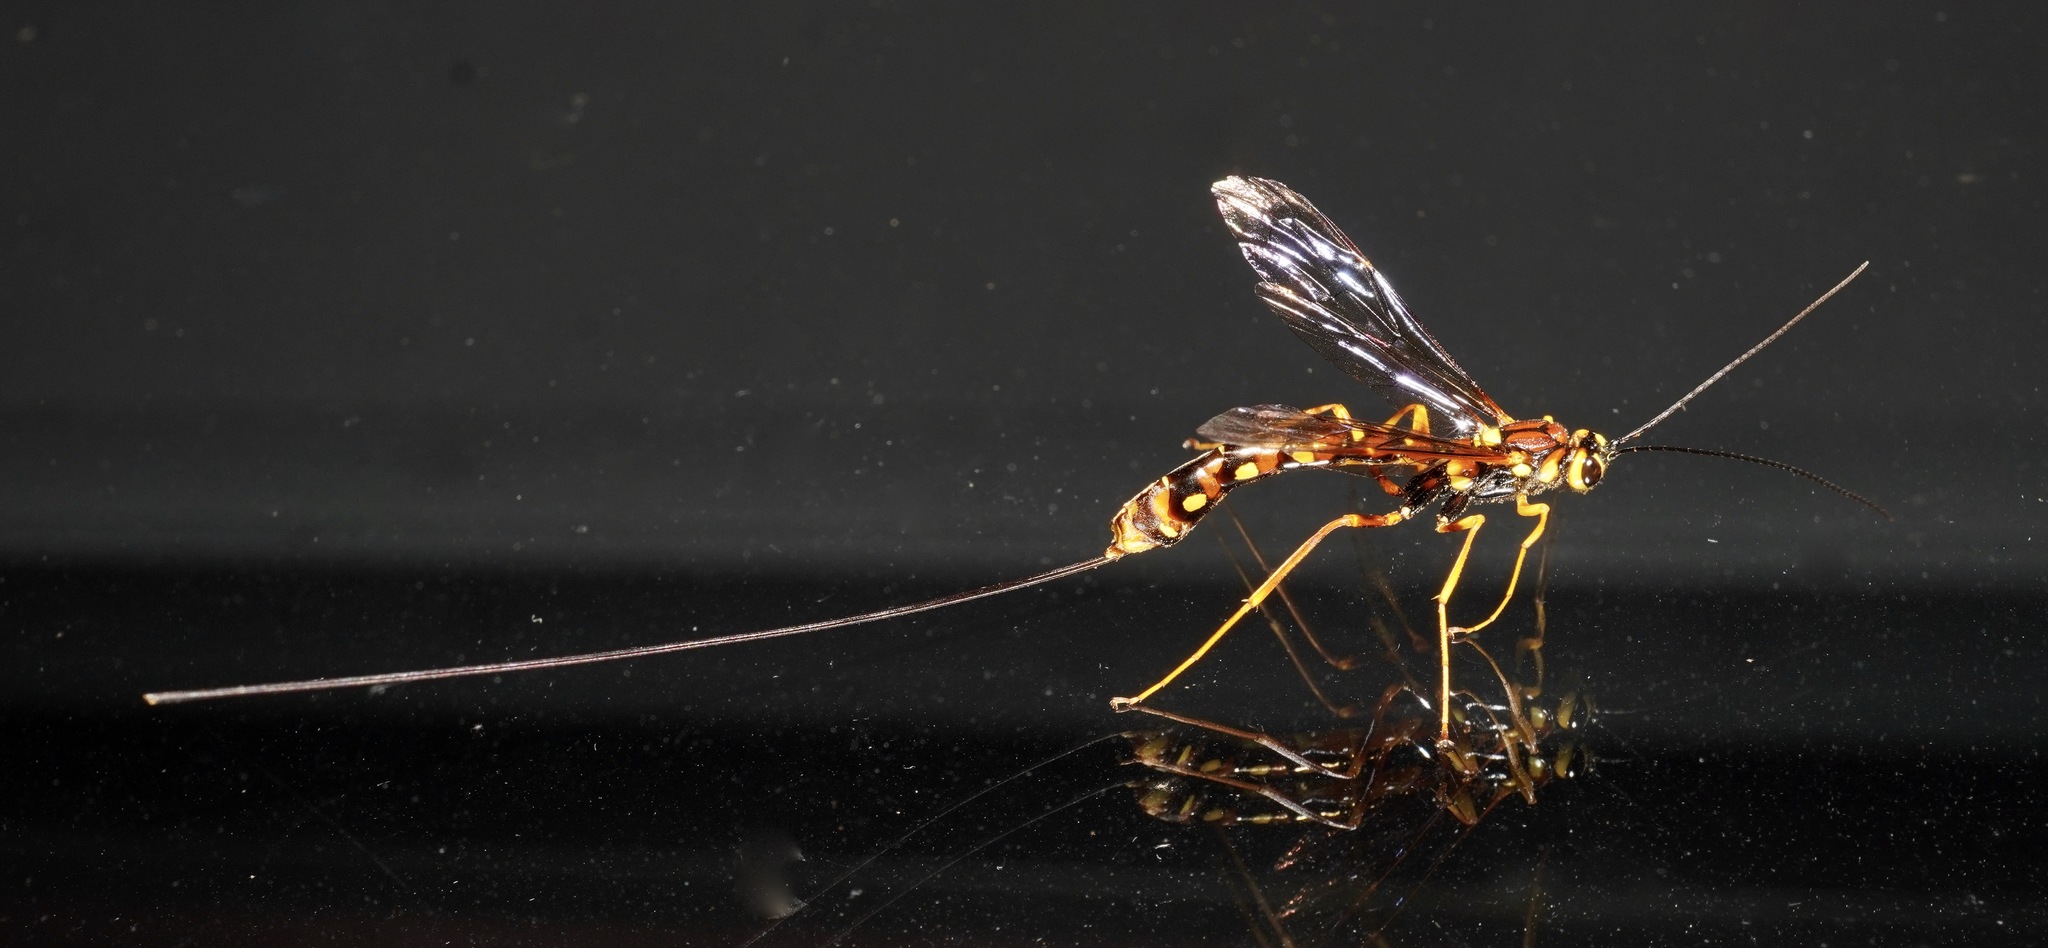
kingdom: Animalia
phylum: Arthropoda
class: Insecta
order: Hymenoptera
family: Ichneumonidae
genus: Megarhyssa
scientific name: Megarhyssa nortoni
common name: Norton's giant ichneumonid wasp
